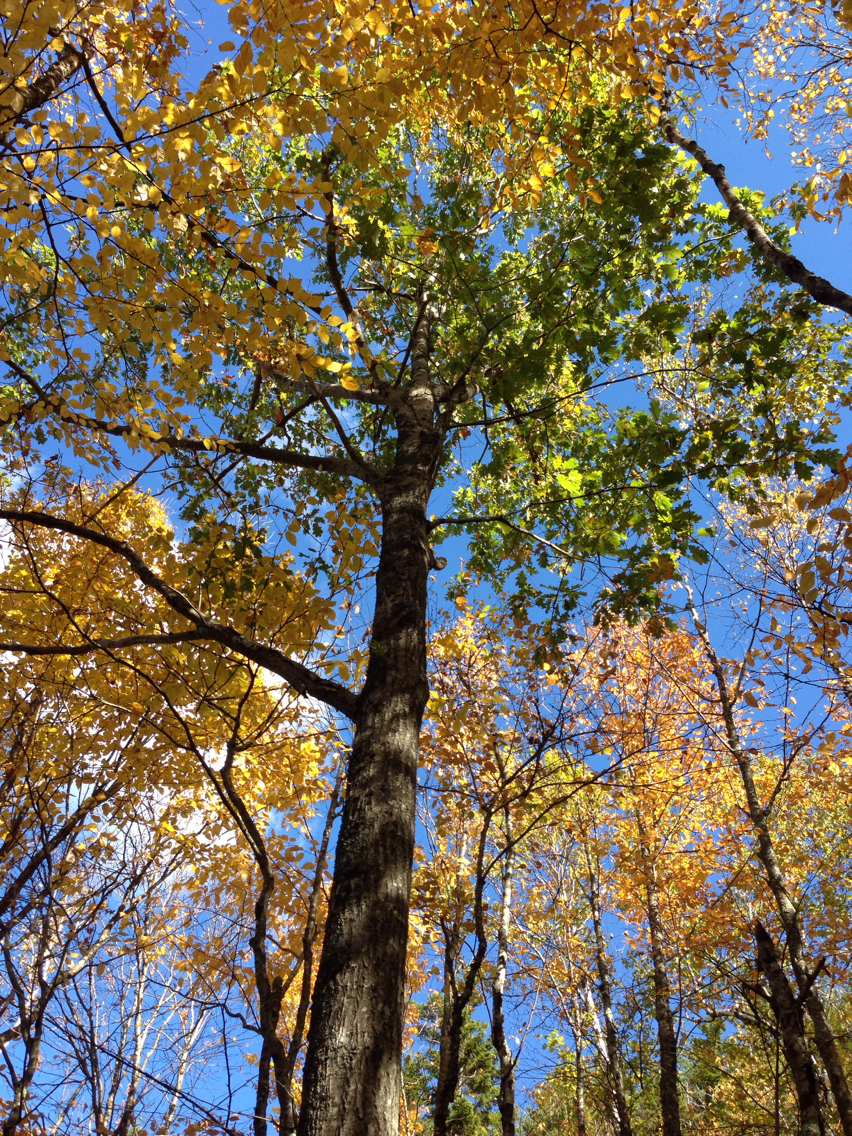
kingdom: Plantae
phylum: Tracheophyta
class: Magnoliopsida
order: Fagales
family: Fagaceae
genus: Quercus
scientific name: Quercus rubra
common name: Red oak
